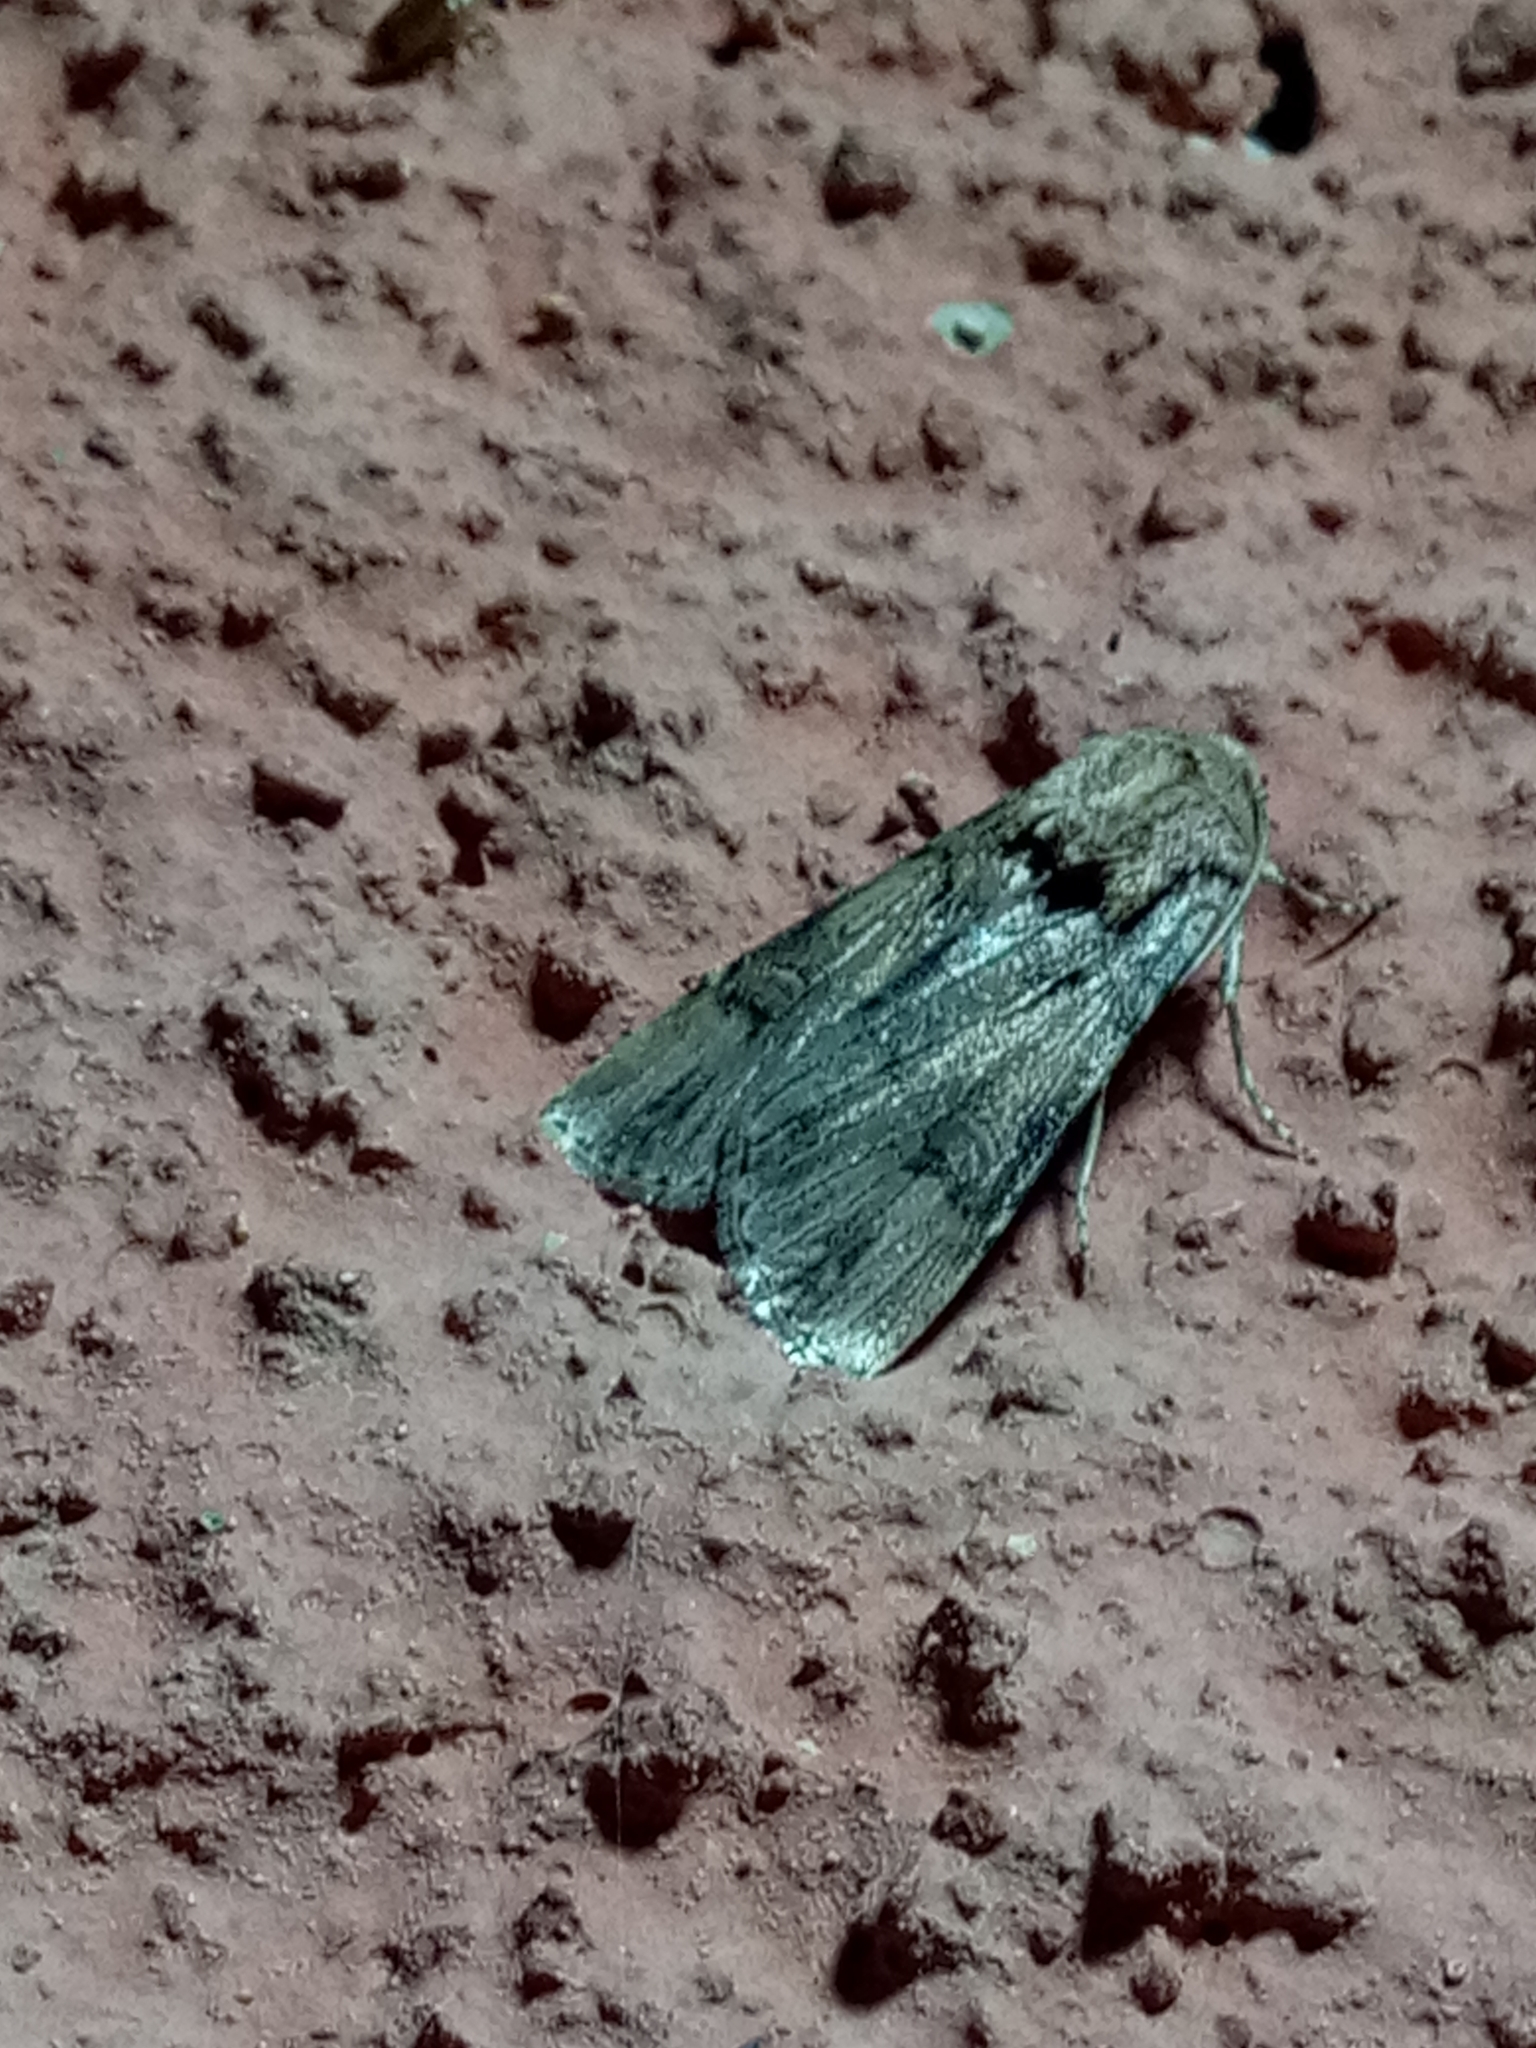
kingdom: Animalia
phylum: Arthropoda
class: Insecta
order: Lepidoptera
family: Noctuidae
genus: Agrotis
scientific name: Agrotis herzogi
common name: Spalding's dart
